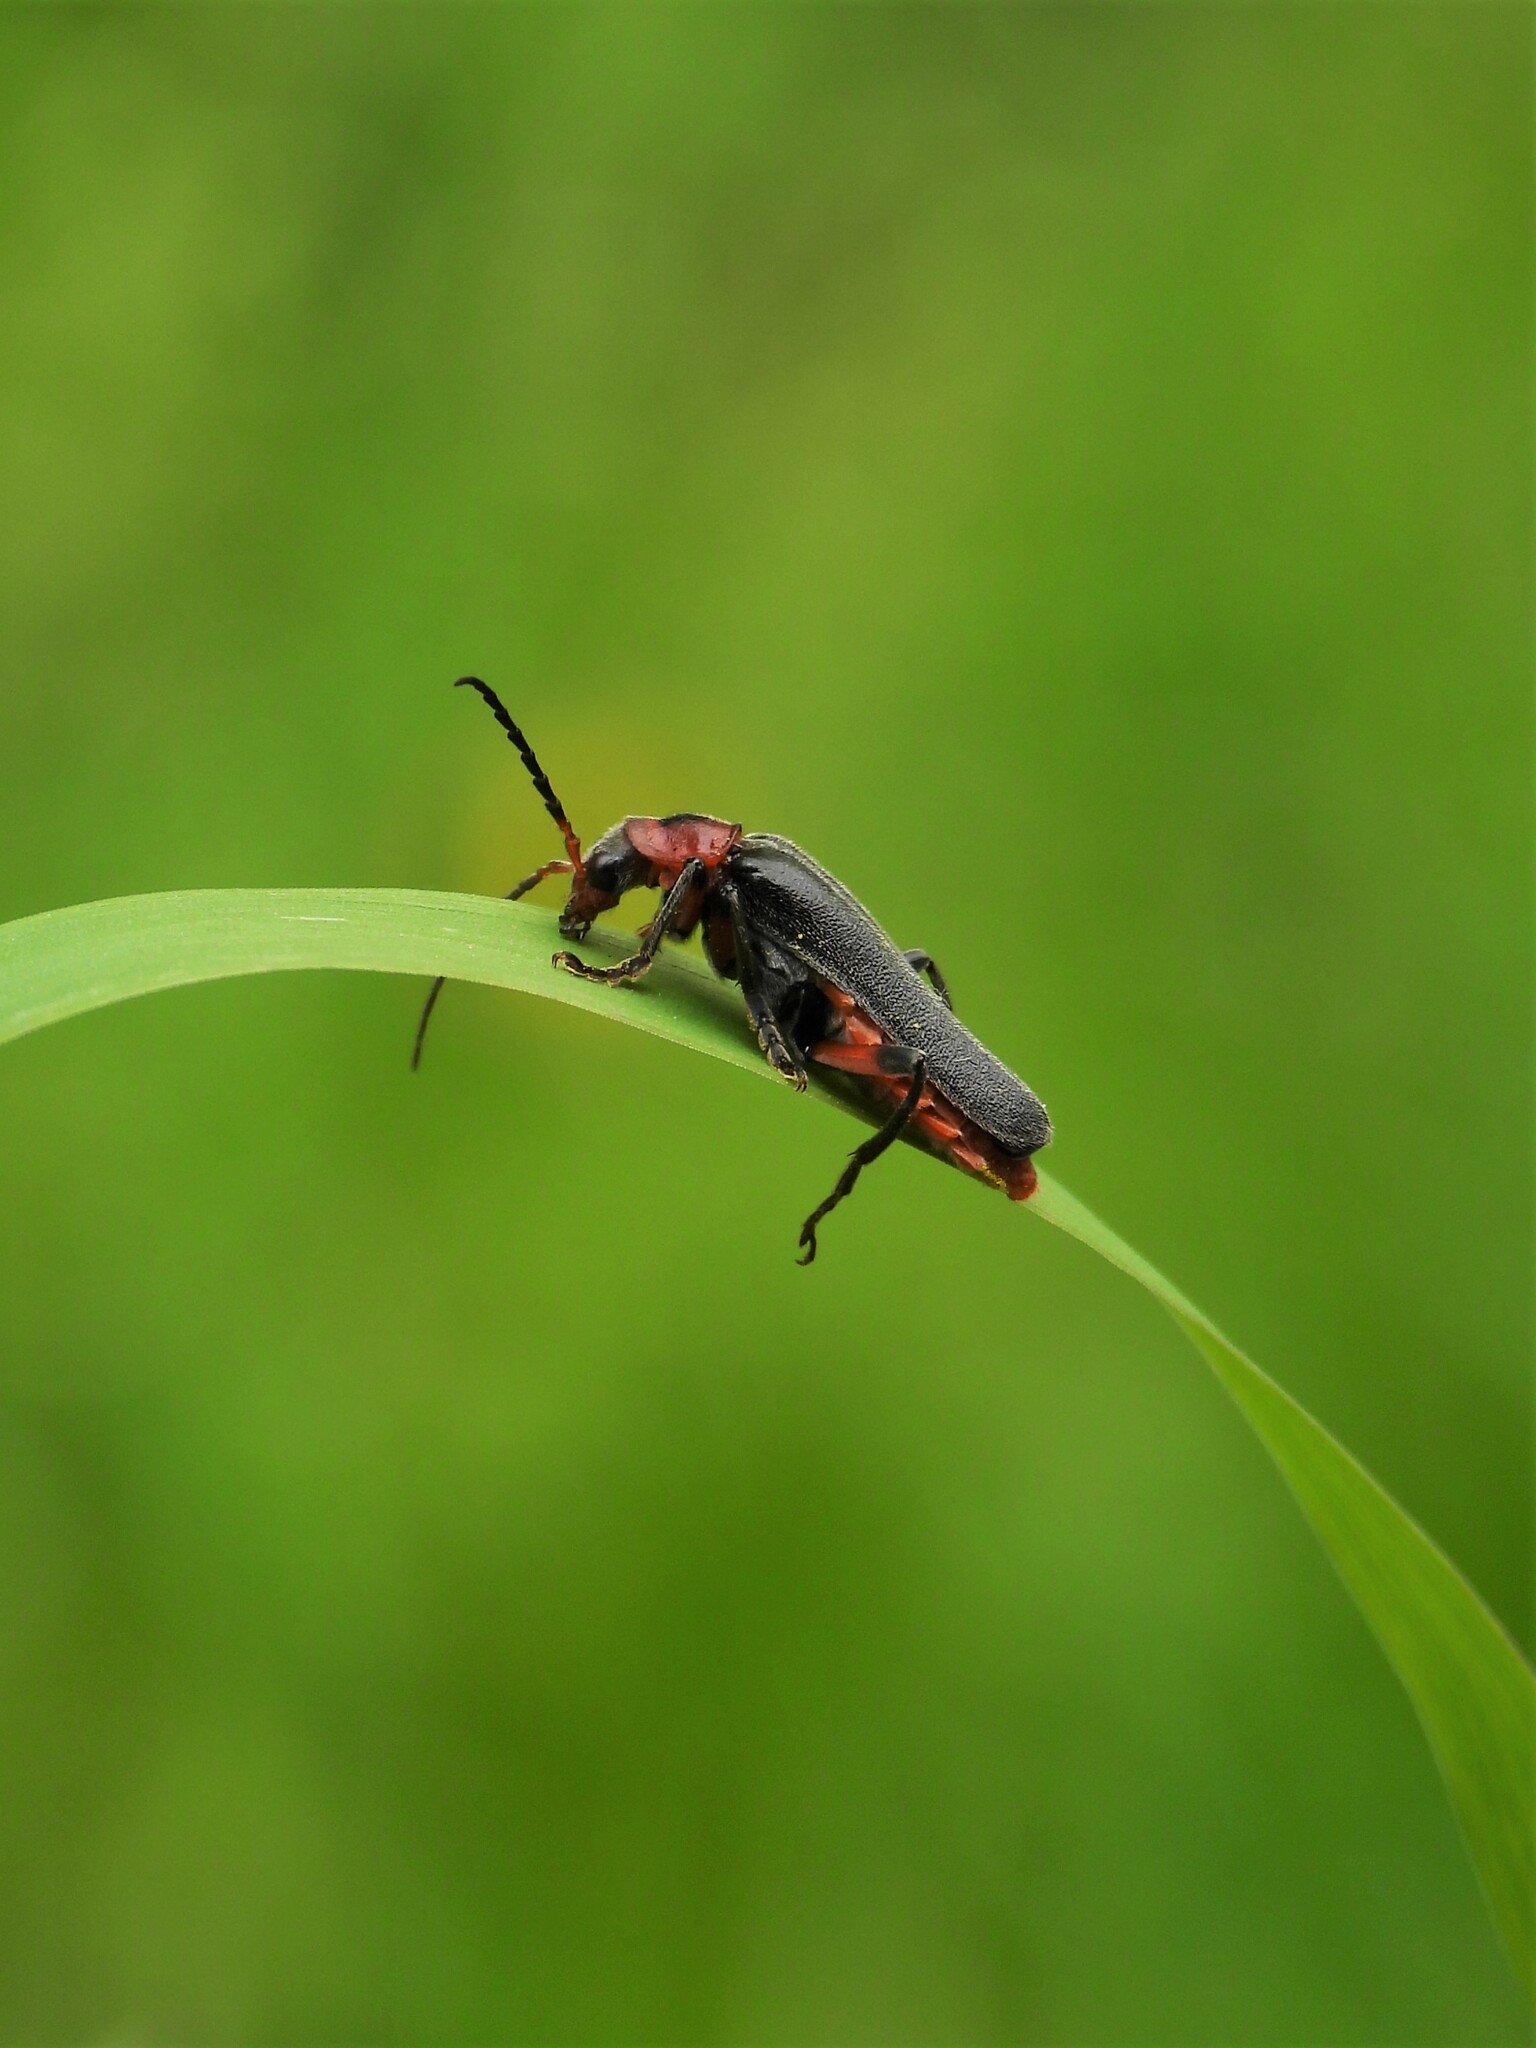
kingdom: Animalia
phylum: Arthropoda
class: Insecta
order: Coleoptera
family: Cantharidae
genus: Cantharis
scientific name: Cantharis rustica
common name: Soldier beetle
